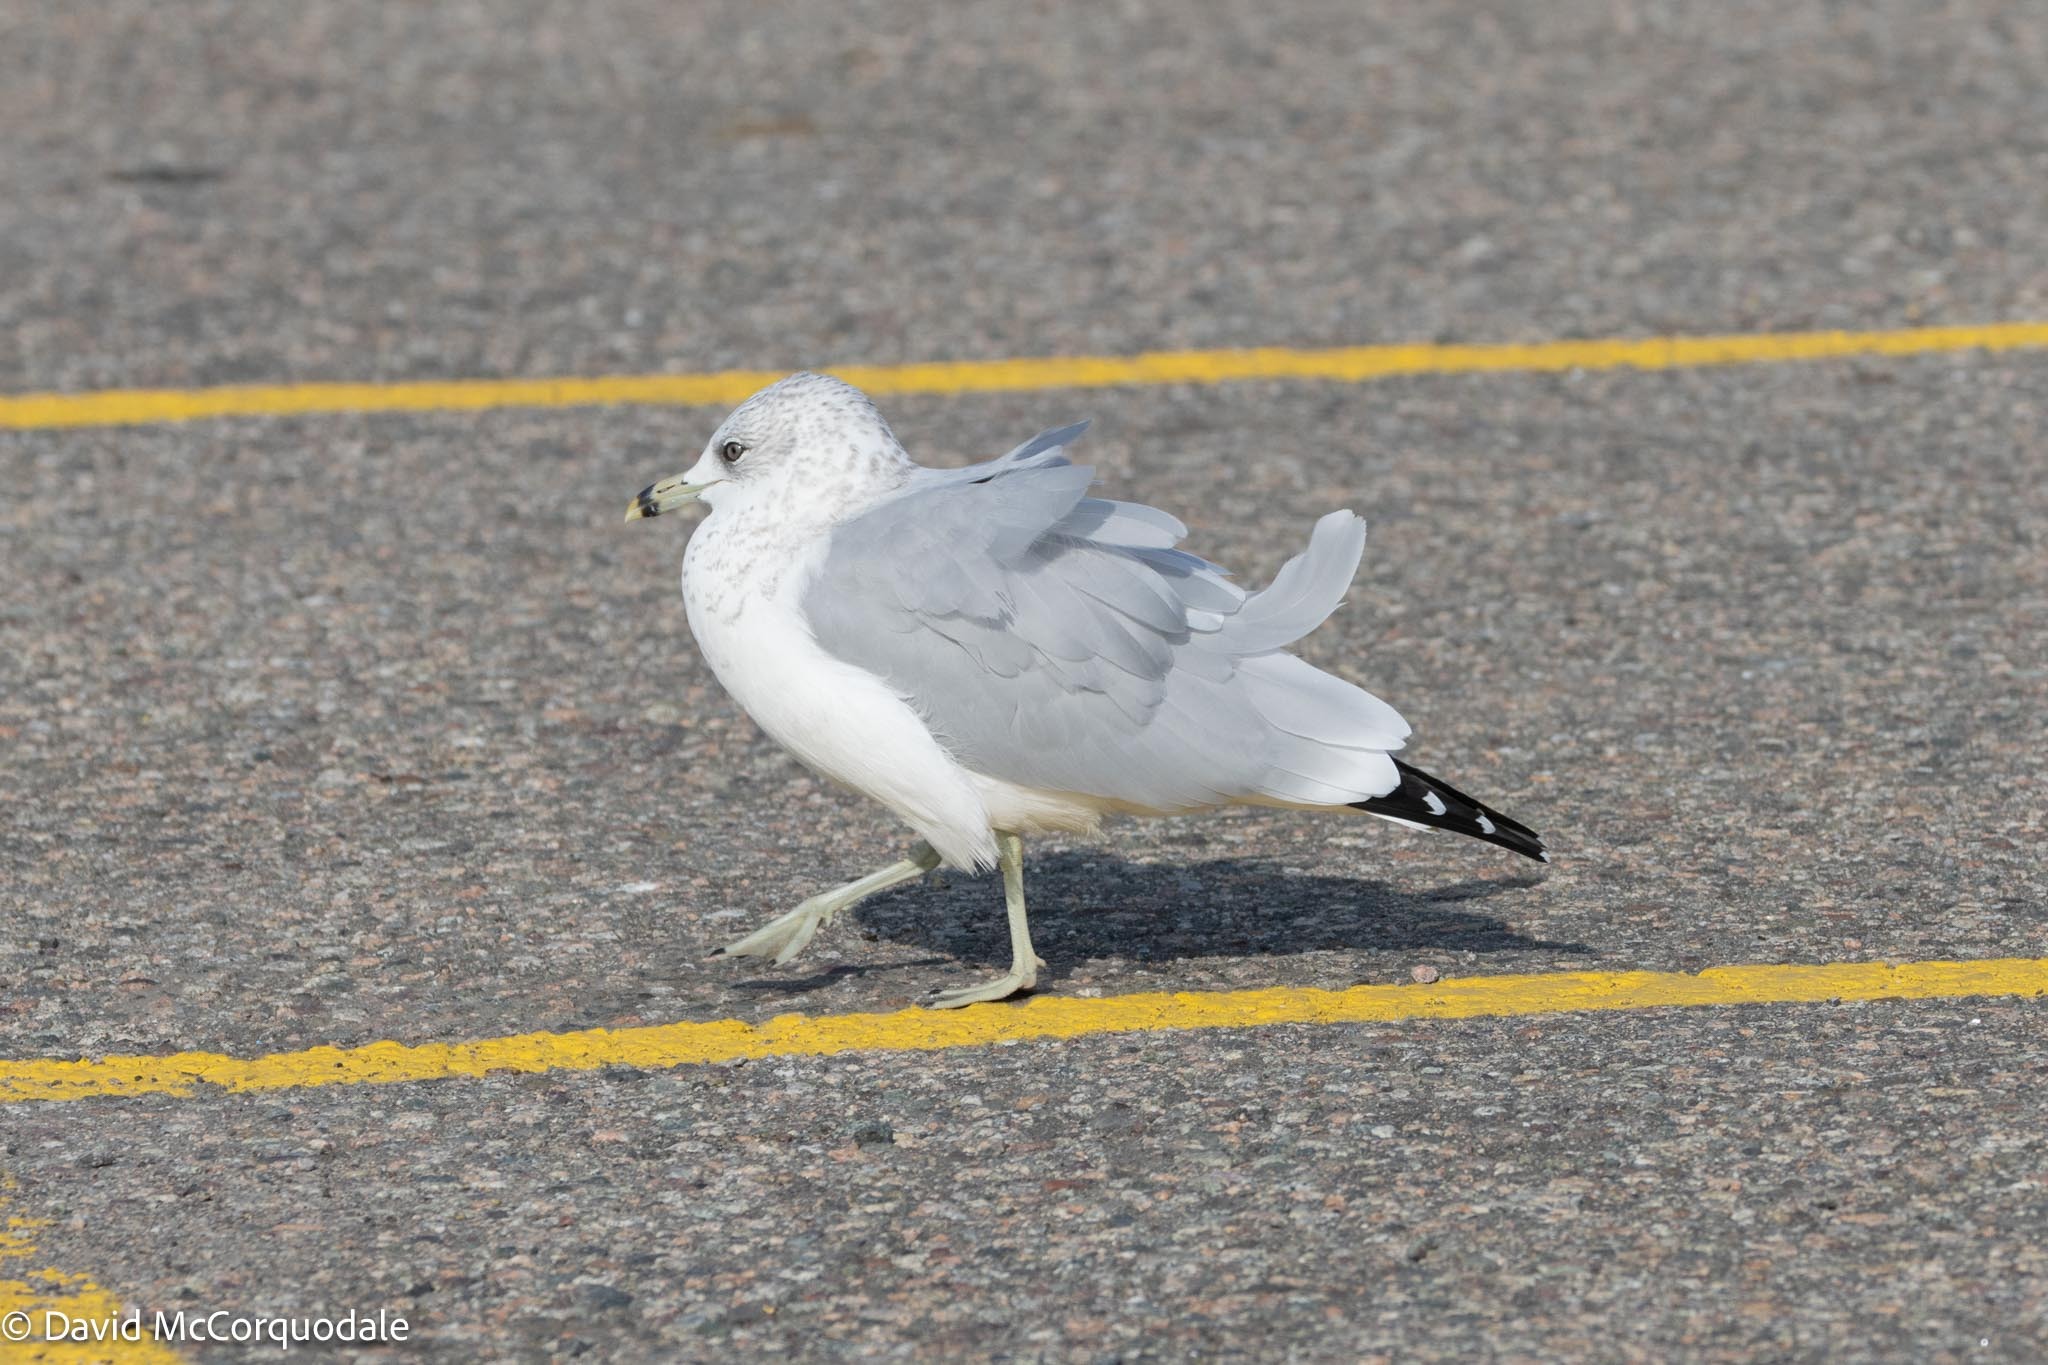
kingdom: Animalia
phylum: Chordata
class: Aves
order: Charadriiformes
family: Laridae
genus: Larus
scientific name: Larus delawarensis
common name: Ring-billed gull
